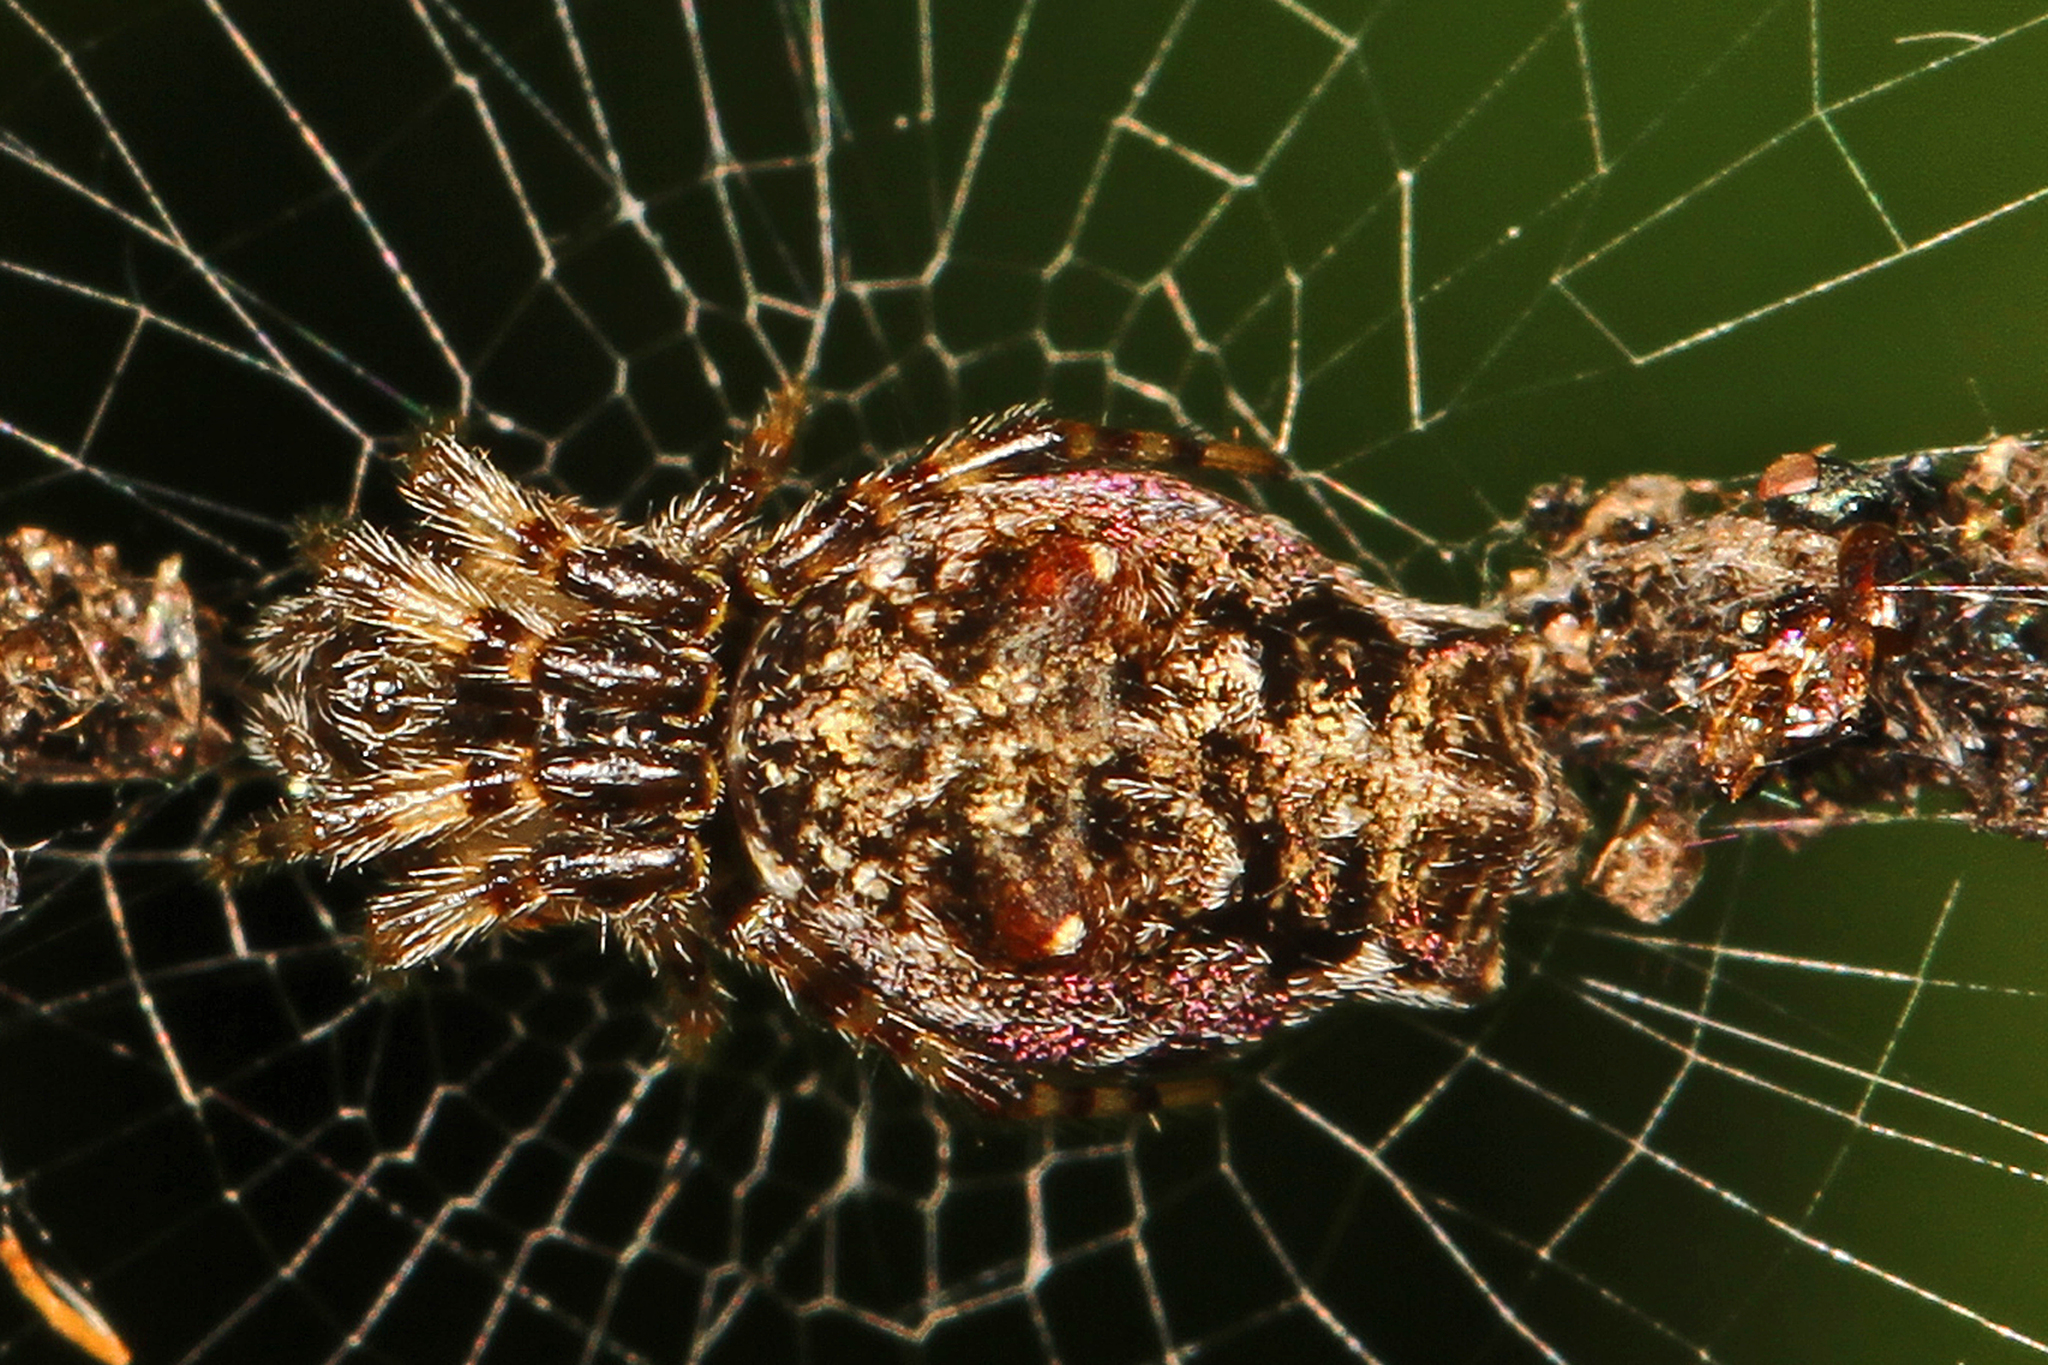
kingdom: Animalia
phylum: Arthropoda
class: Arachnida
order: Araneae
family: Araneidae
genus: Cyclosa
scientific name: Cyclosa walckenaeri
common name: Orb weavers
